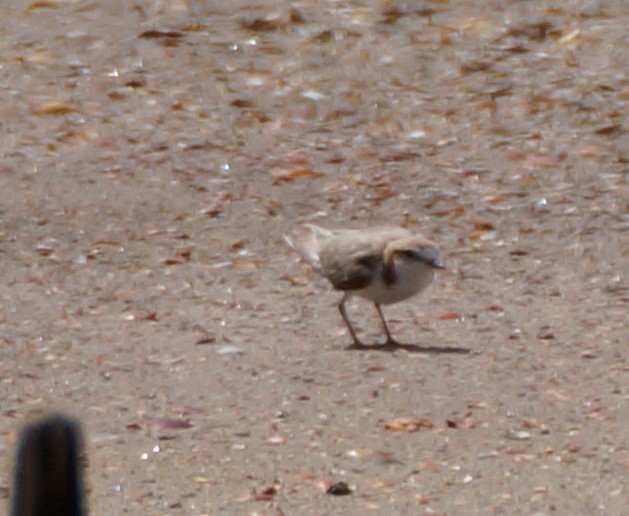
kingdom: Animalia
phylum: Chordata
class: Aves
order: Charadriiformes
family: Charadriidae
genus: Anarhynchus
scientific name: Anarhynchus
